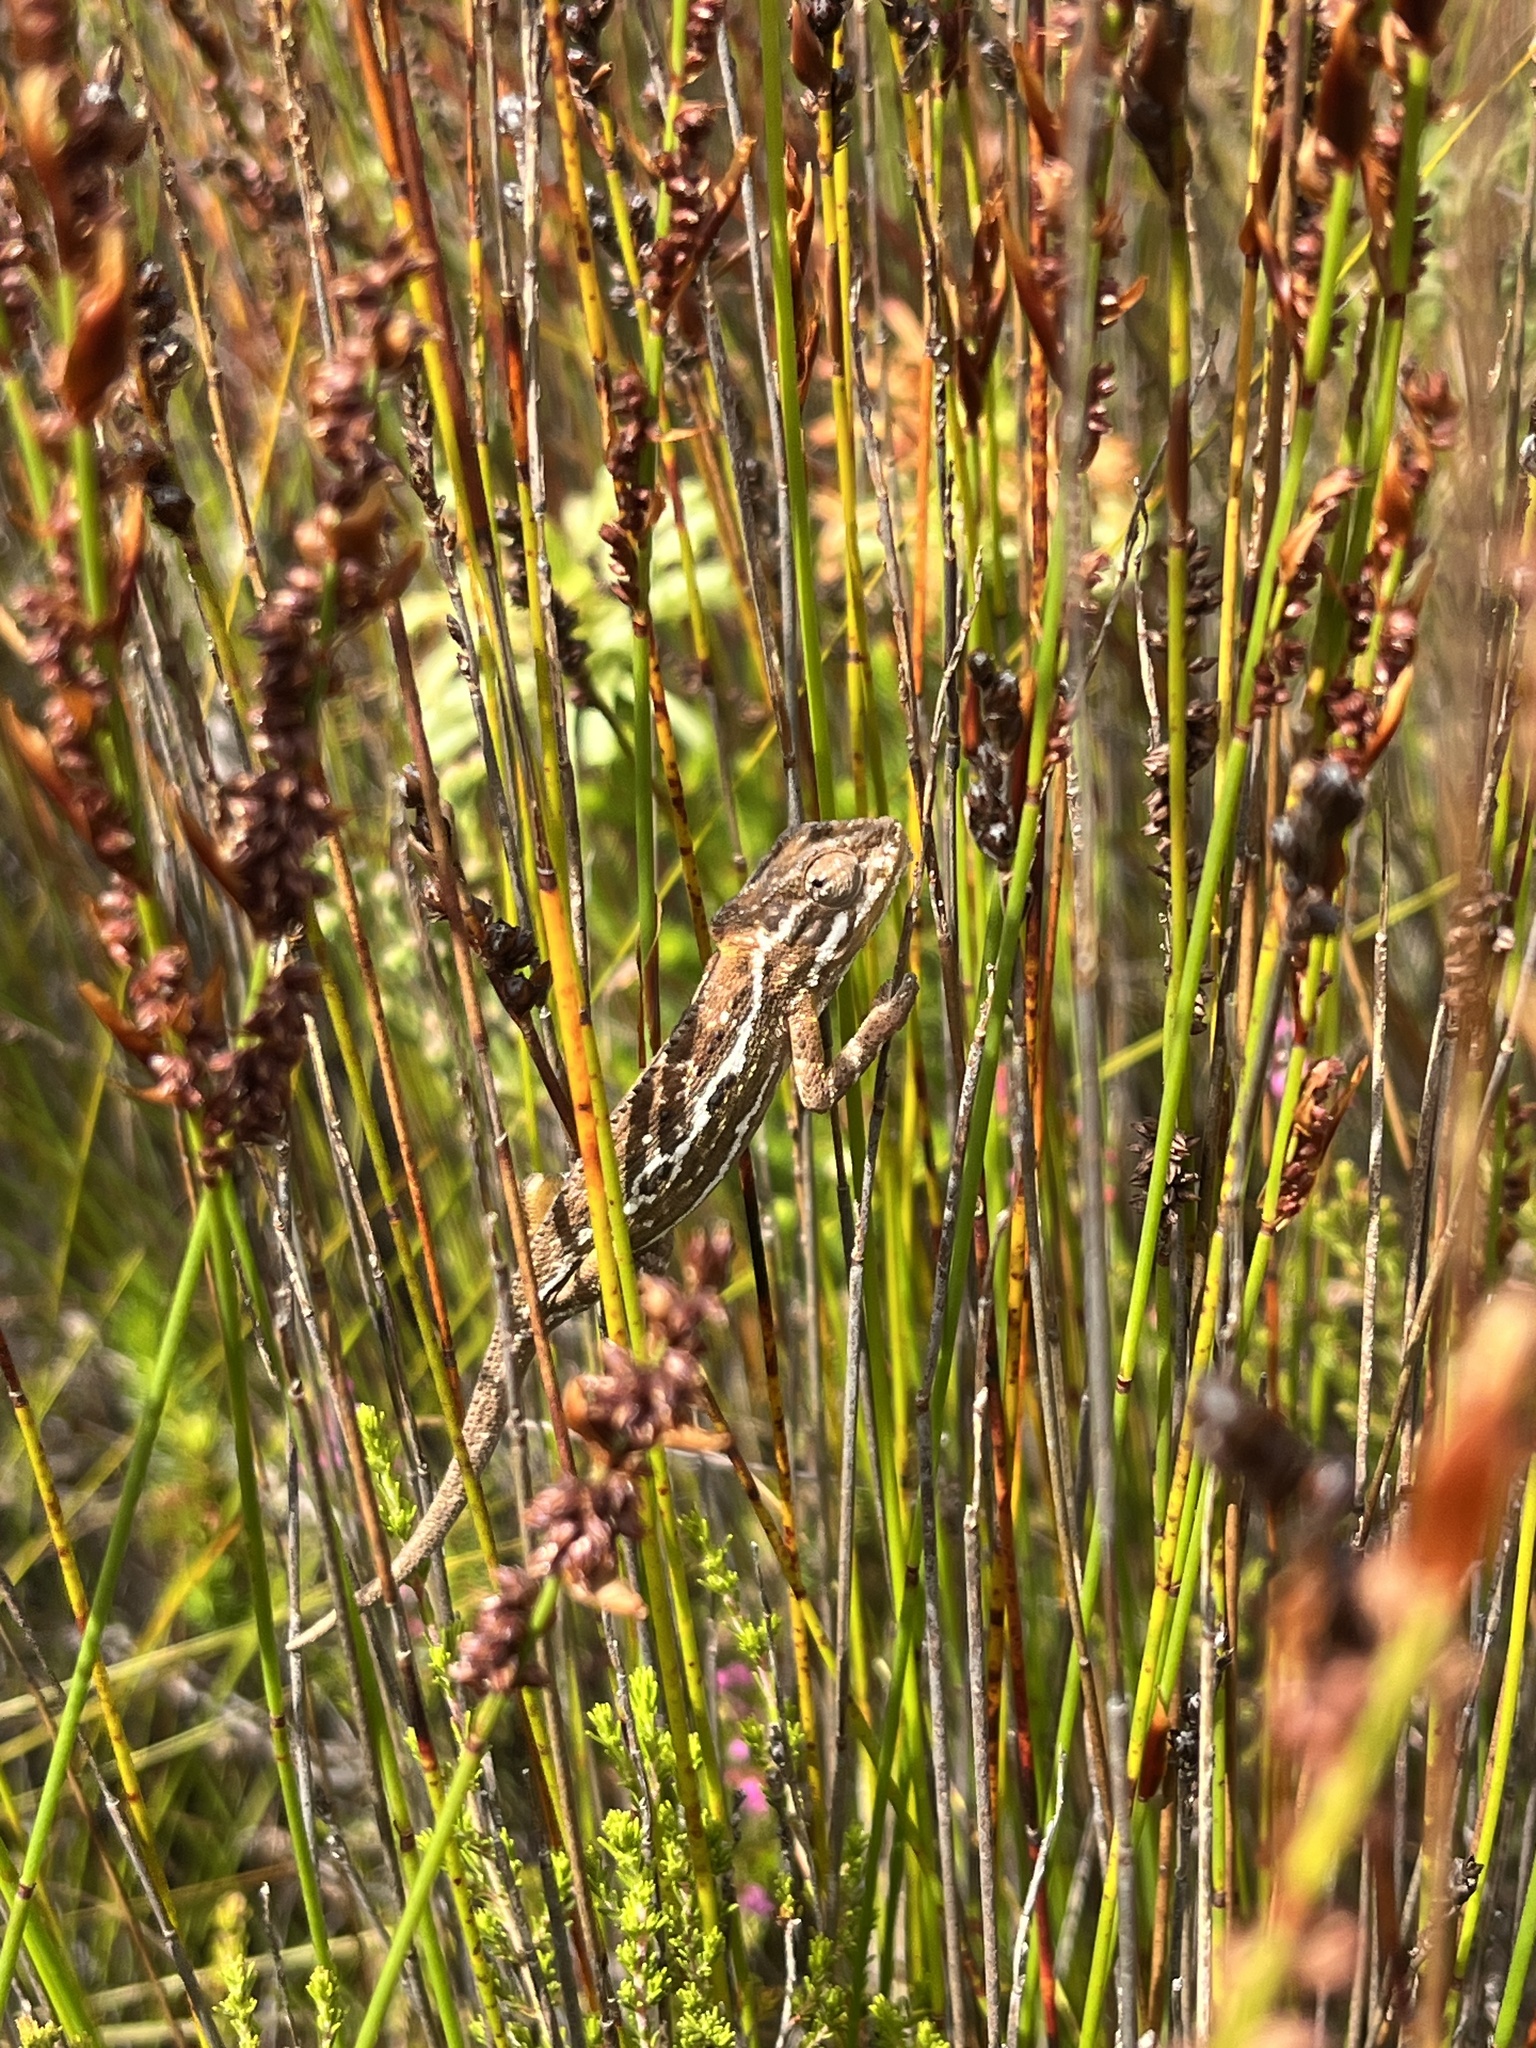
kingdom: Animalia
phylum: Chordata
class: Squamata
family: Chamaeleonidae
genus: Bradypodion
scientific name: Bradypodion pumilum
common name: Cape dwarf chameleon
